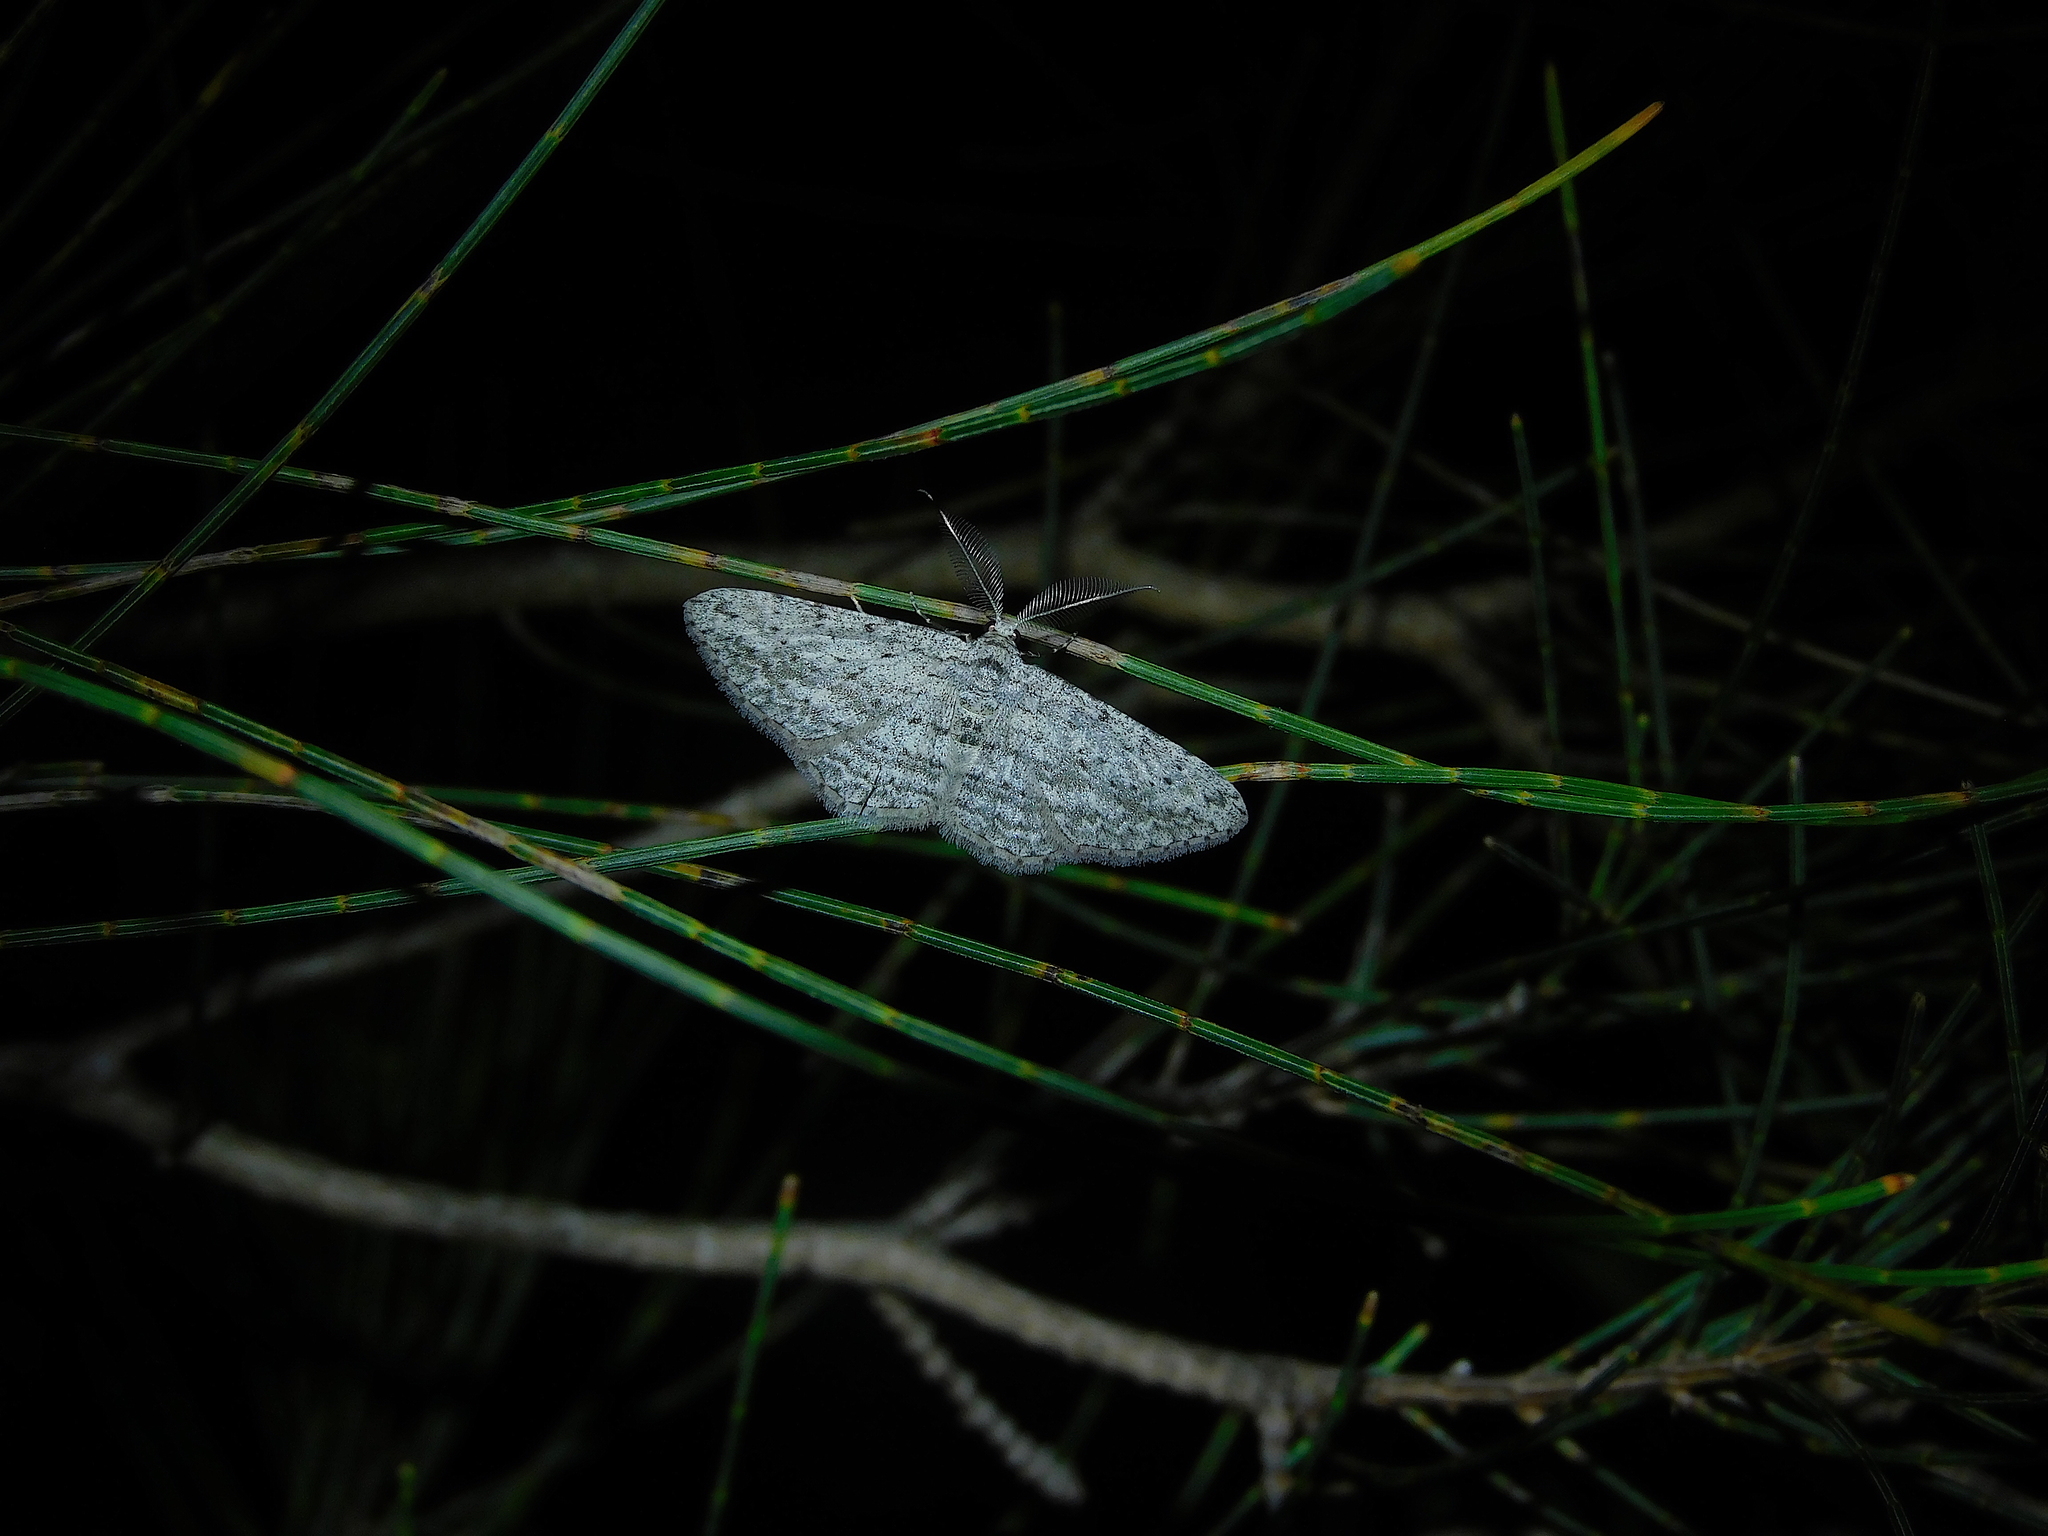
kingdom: Animalia
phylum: Arthropoda
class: Insecta
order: Lepidoptera
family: Geometridae
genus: Phelotis
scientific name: Phelotis cognata
